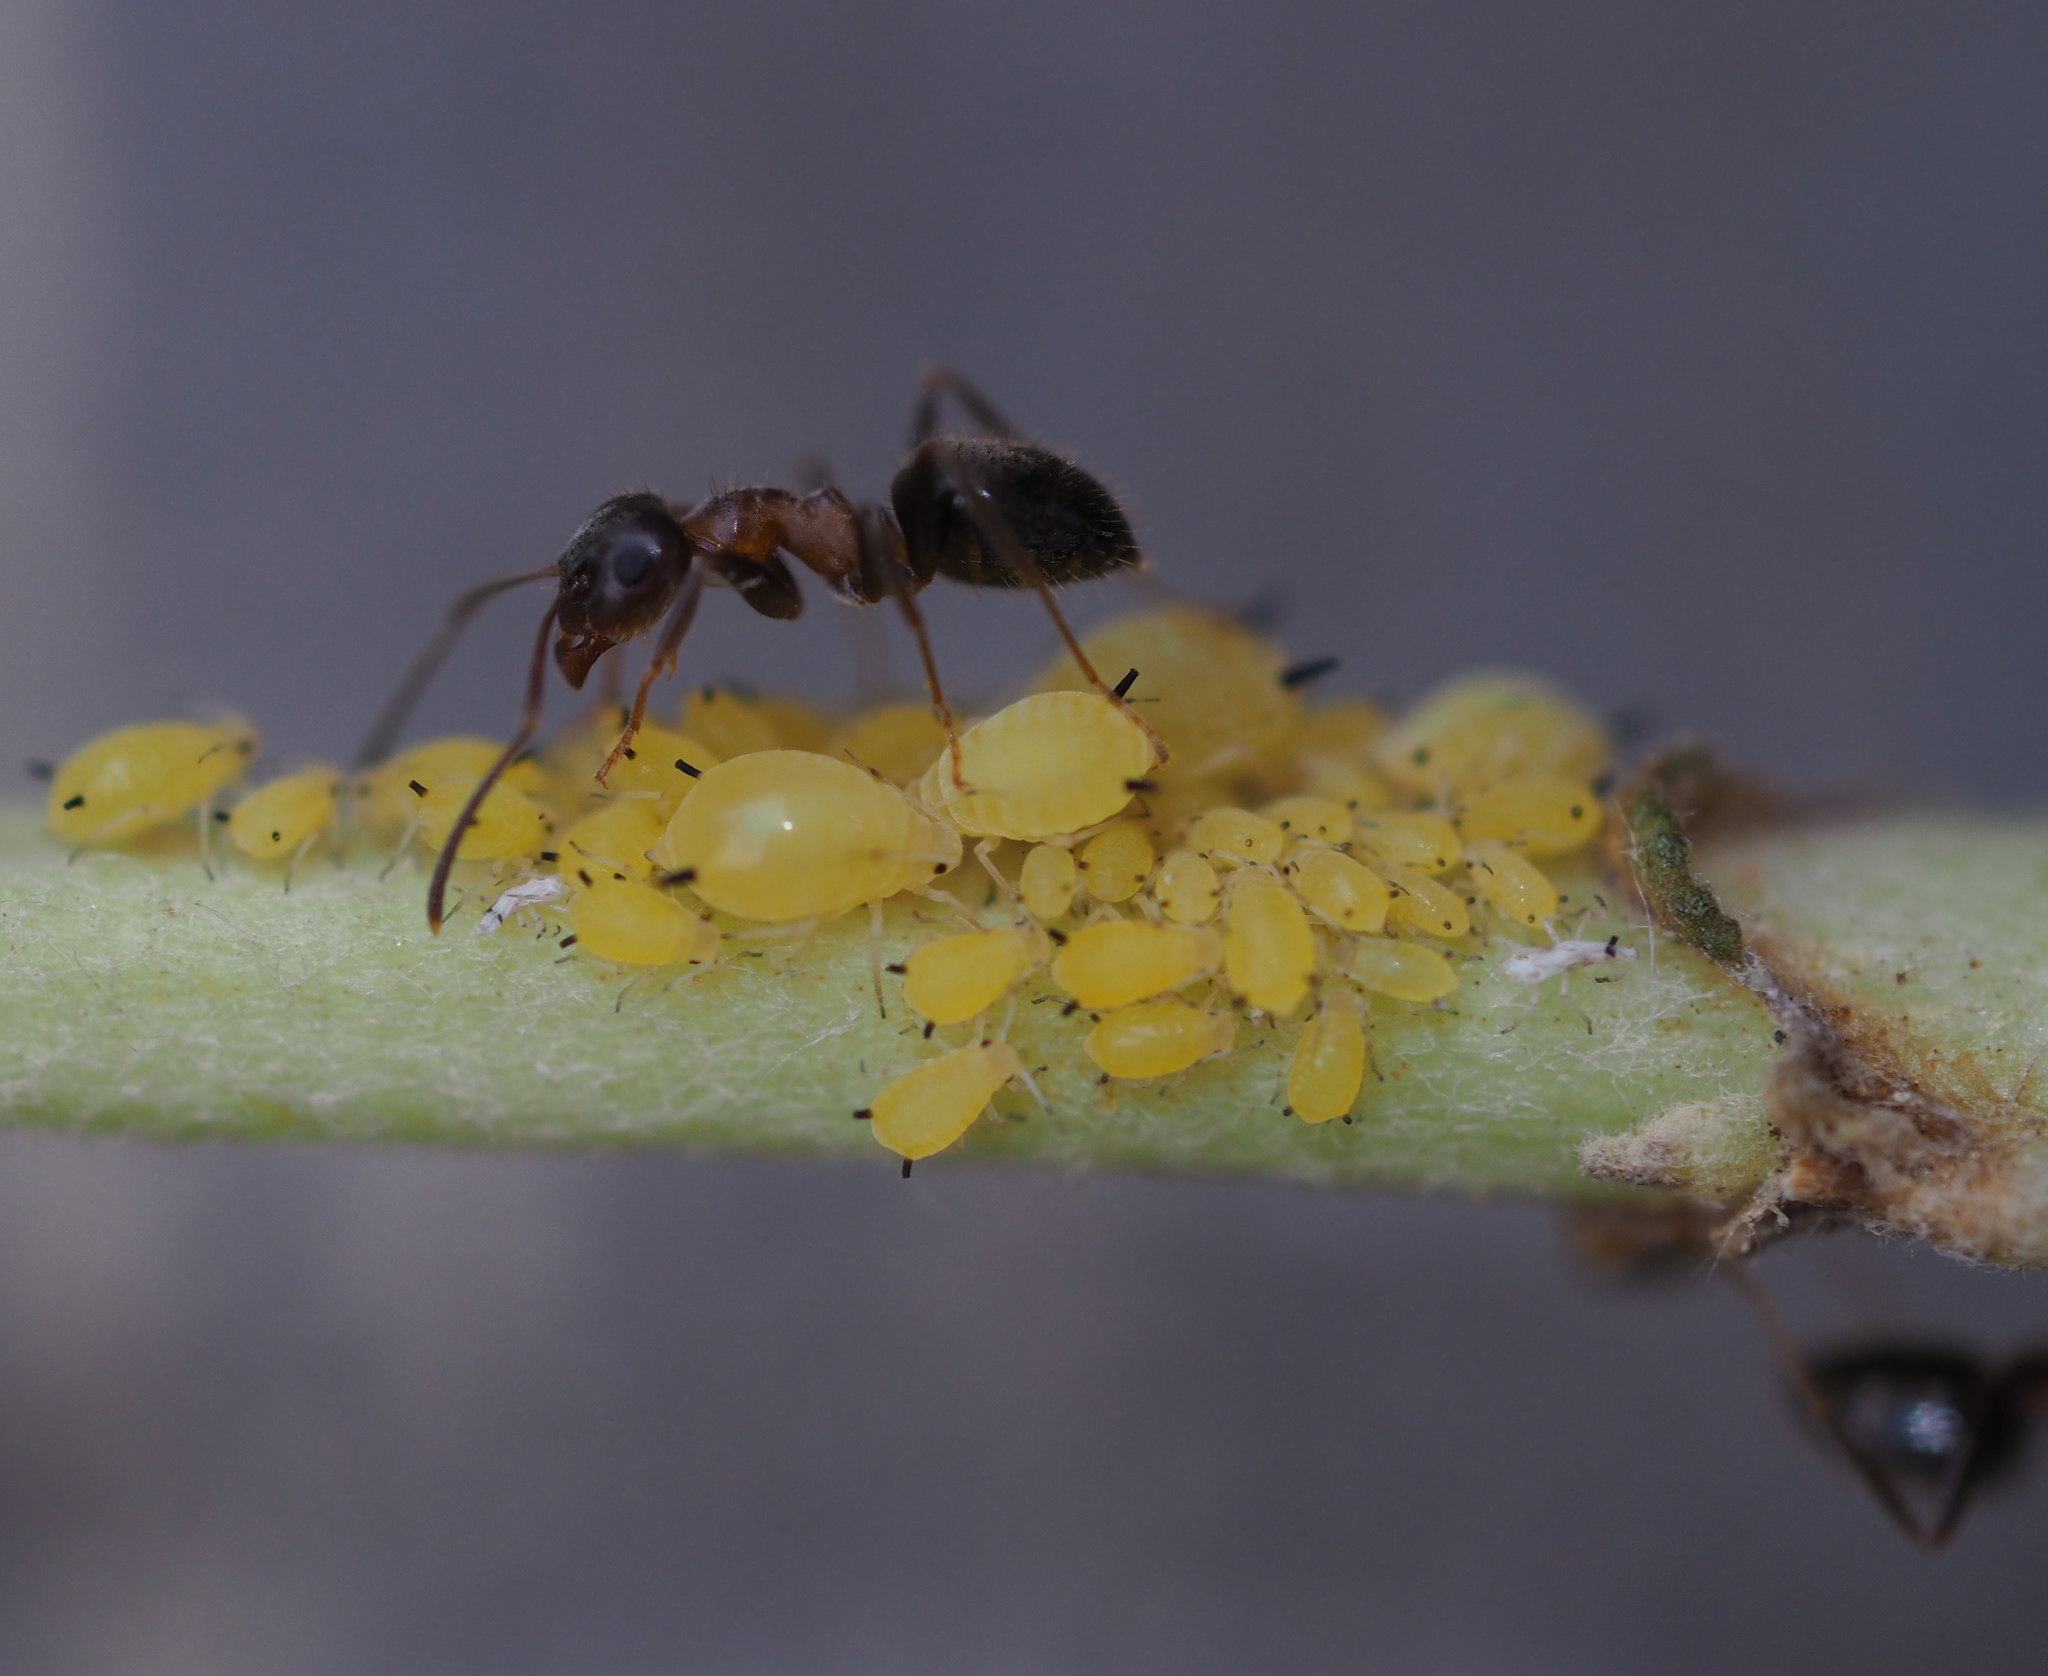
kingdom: Animalia
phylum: Arthropoda
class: Insecta
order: Hymenoptera
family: Formicidae
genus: Lasius
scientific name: Lasius emarginatus
